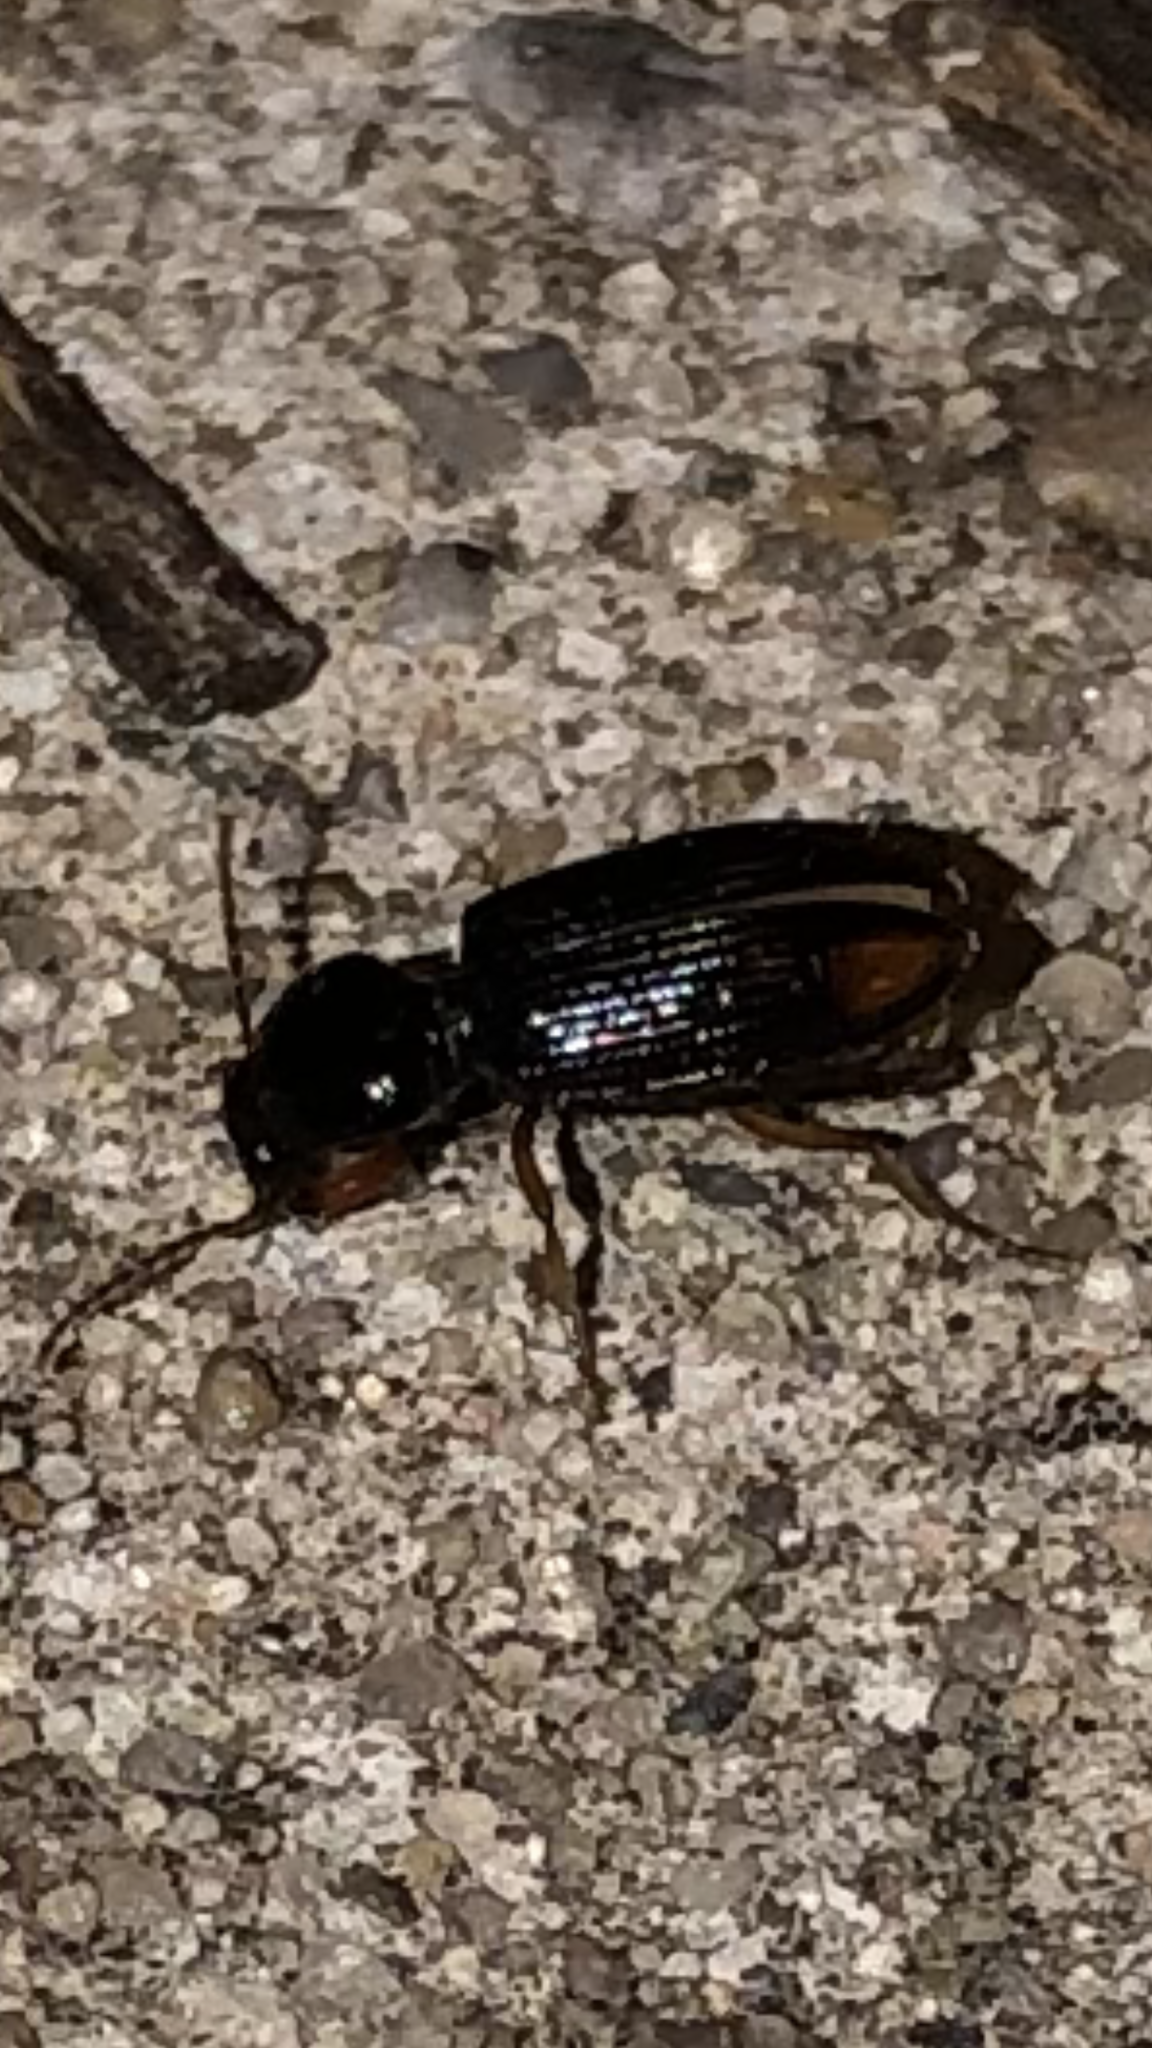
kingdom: Animalia
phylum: Arthropoda
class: Insecta
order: Coleoptera
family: Carabidae
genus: Aspidoglossa
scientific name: Aspidoglossa subangulata
